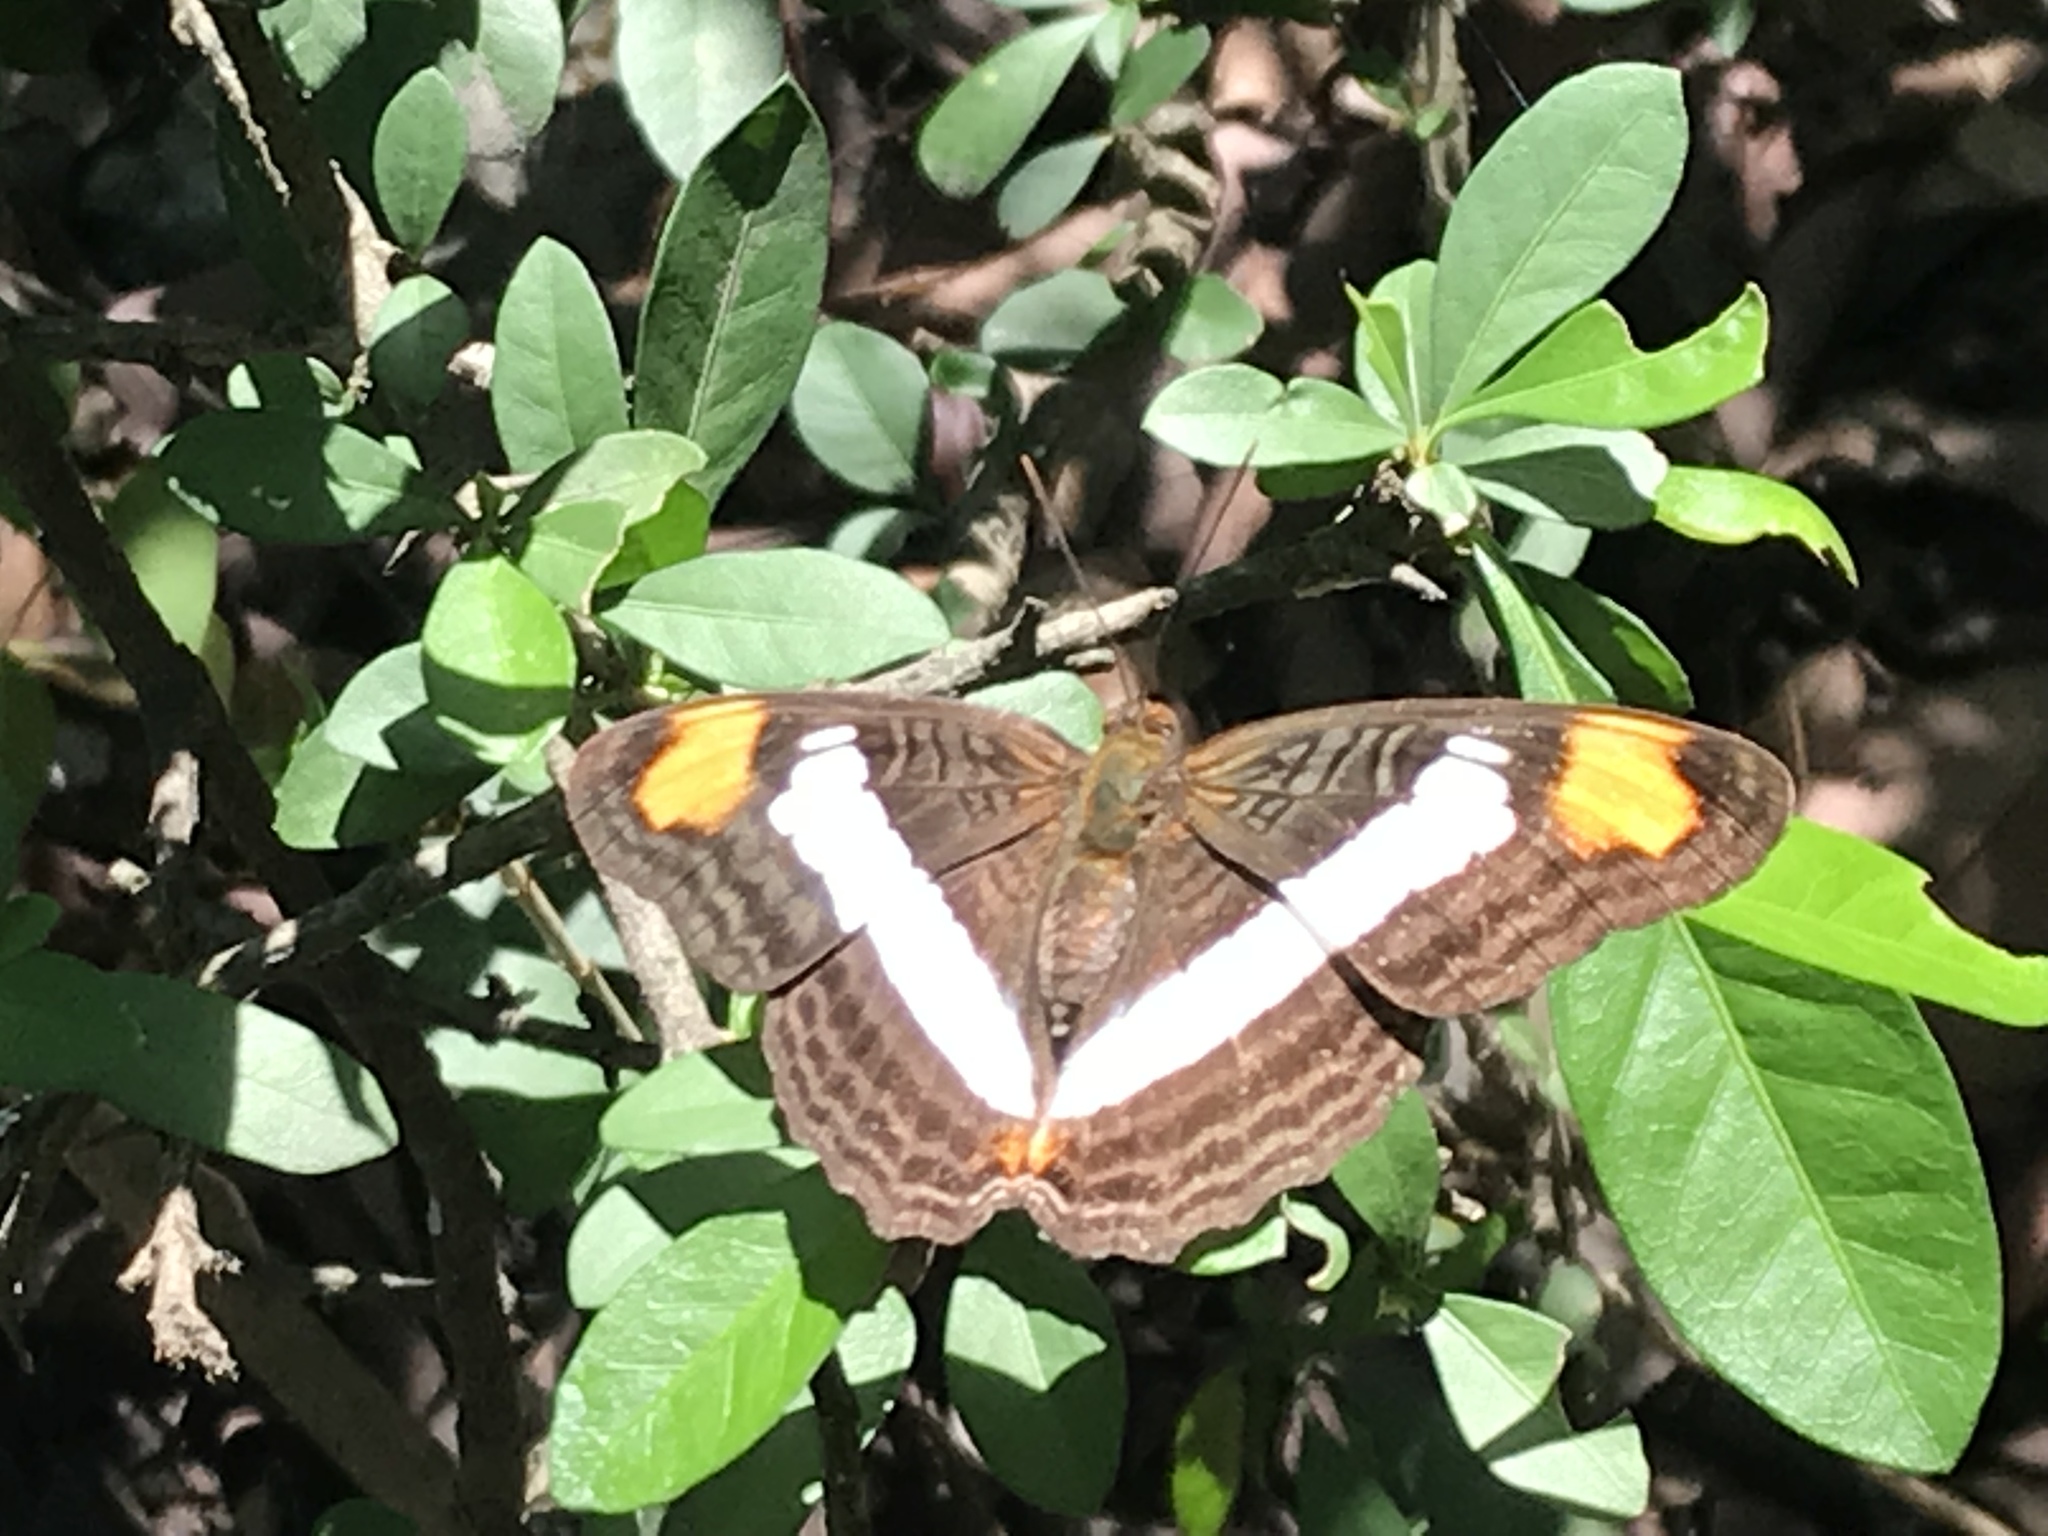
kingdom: Animalia
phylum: Arthropoda
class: Insecta
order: Lepidoptera
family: Nymphalidae
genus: Limenitis
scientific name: Limenitis Adelpha basiloides
